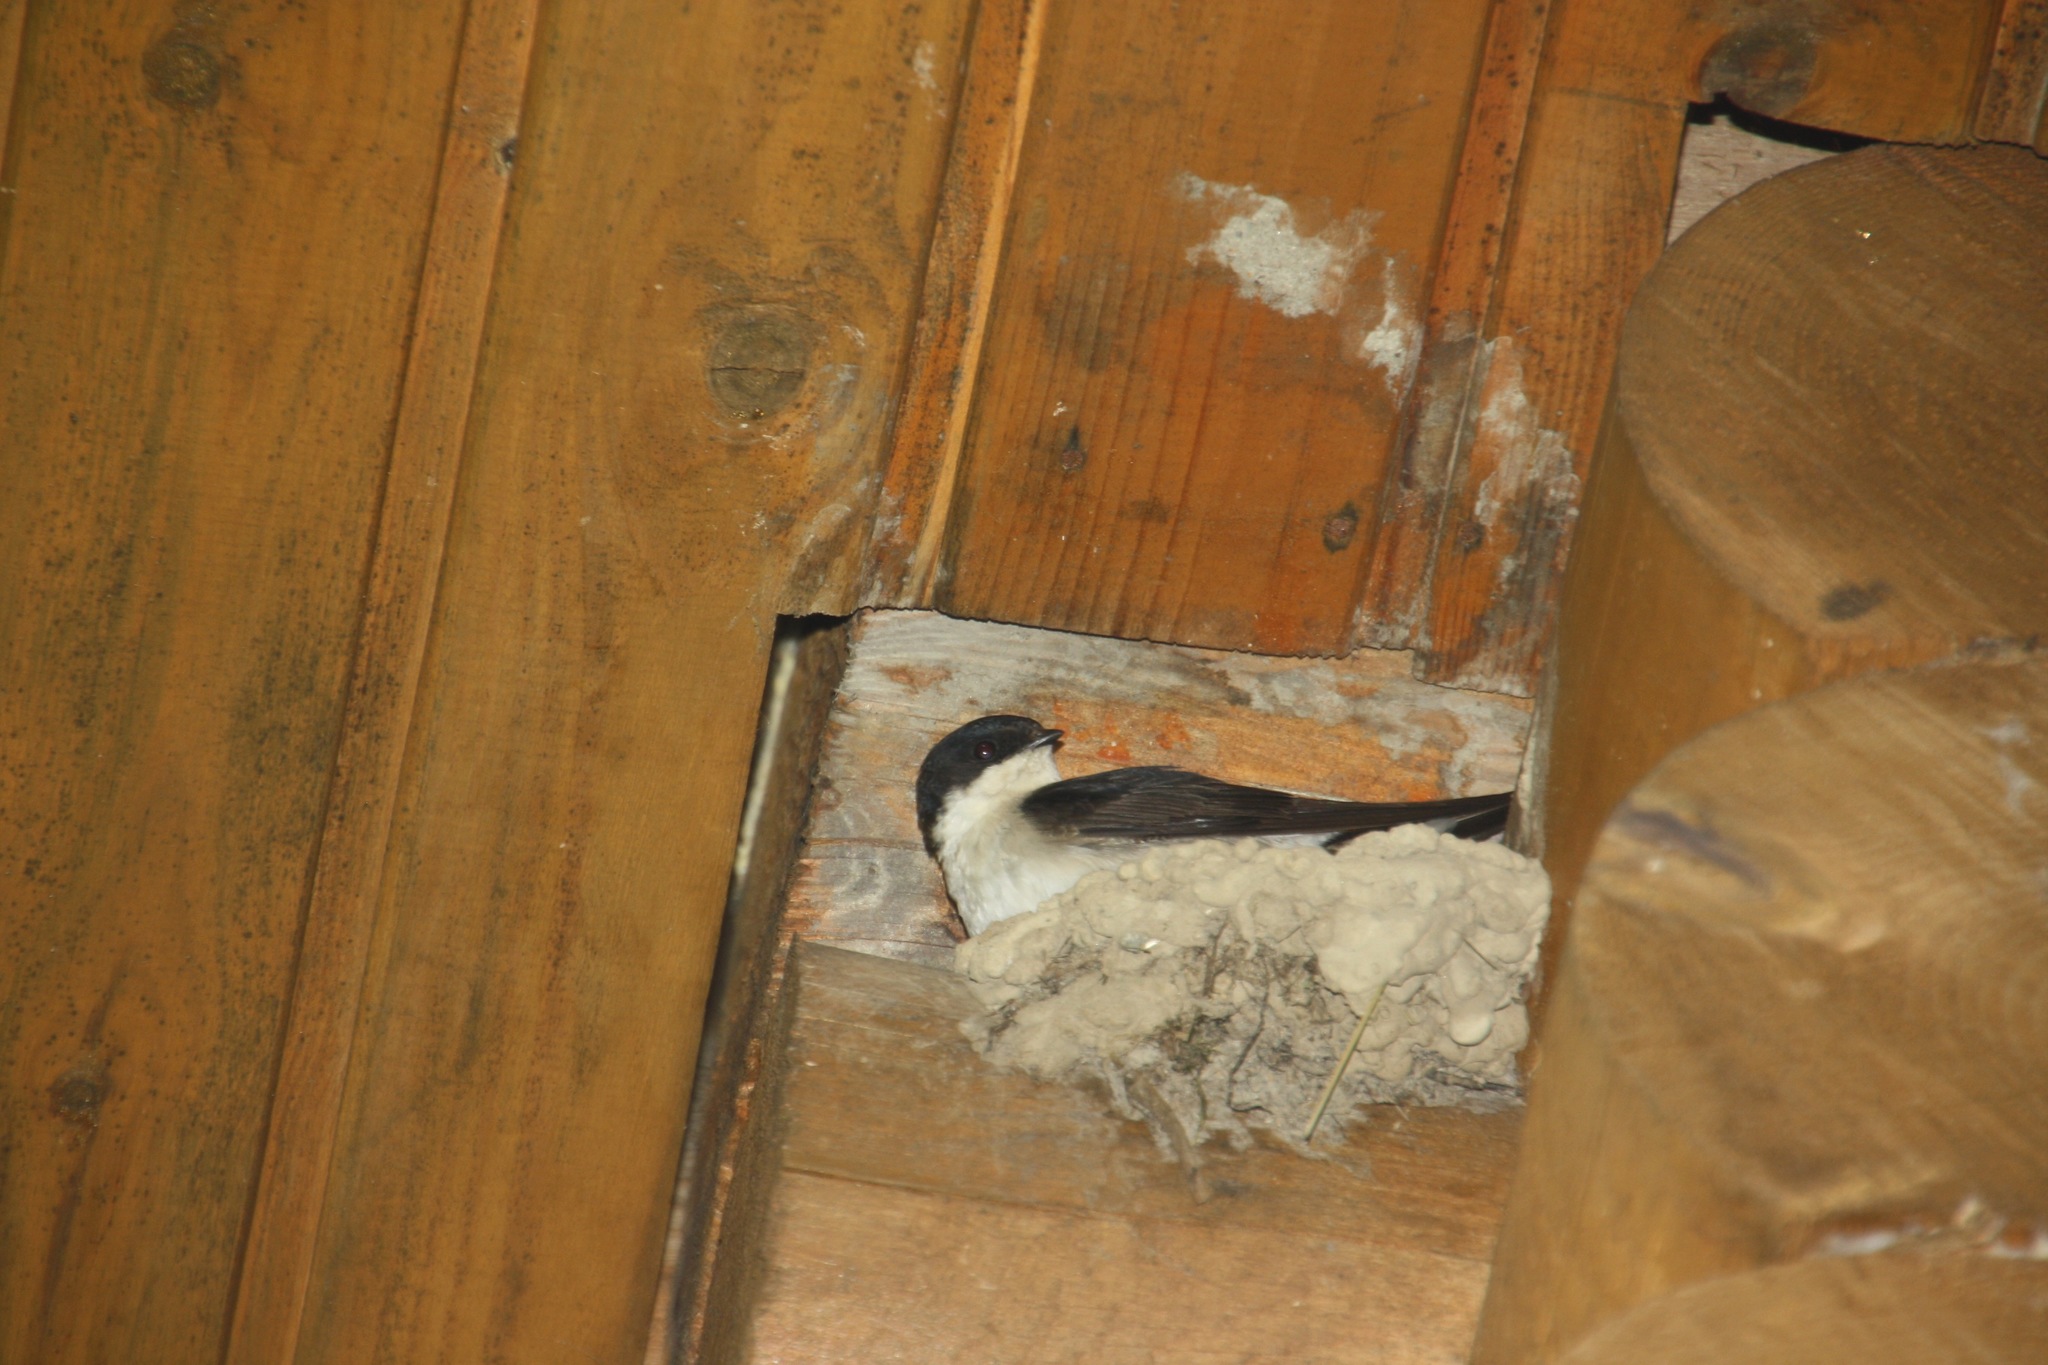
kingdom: Animalia
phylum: Chordata
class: Aves
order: Passeriformes
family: Hirundinidae
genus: Delichon
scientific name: Delichon urbicum
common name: Common house martin
